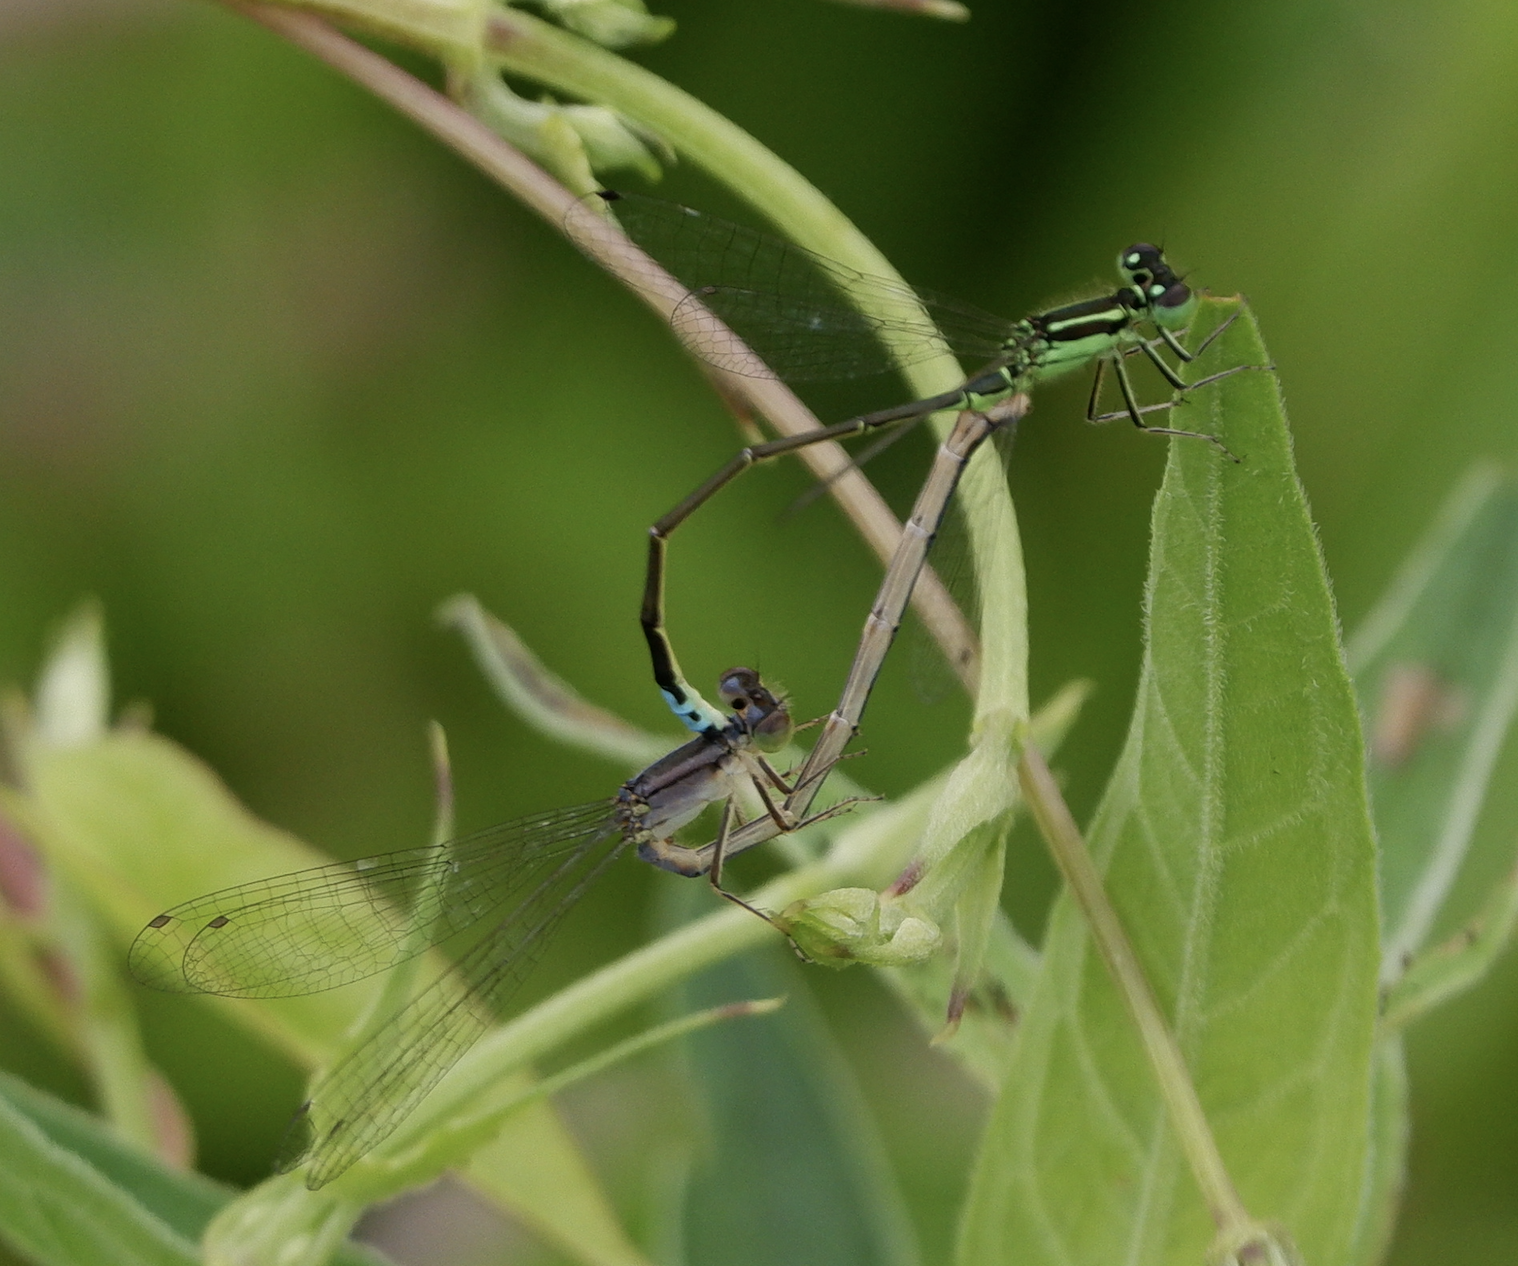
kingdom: Animalia
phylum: Arthropoda
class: Insecta
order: Odonata
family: Coenagrionidae
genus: Ischnura
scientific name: Ischnura verticalis
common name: Eastern forktail
